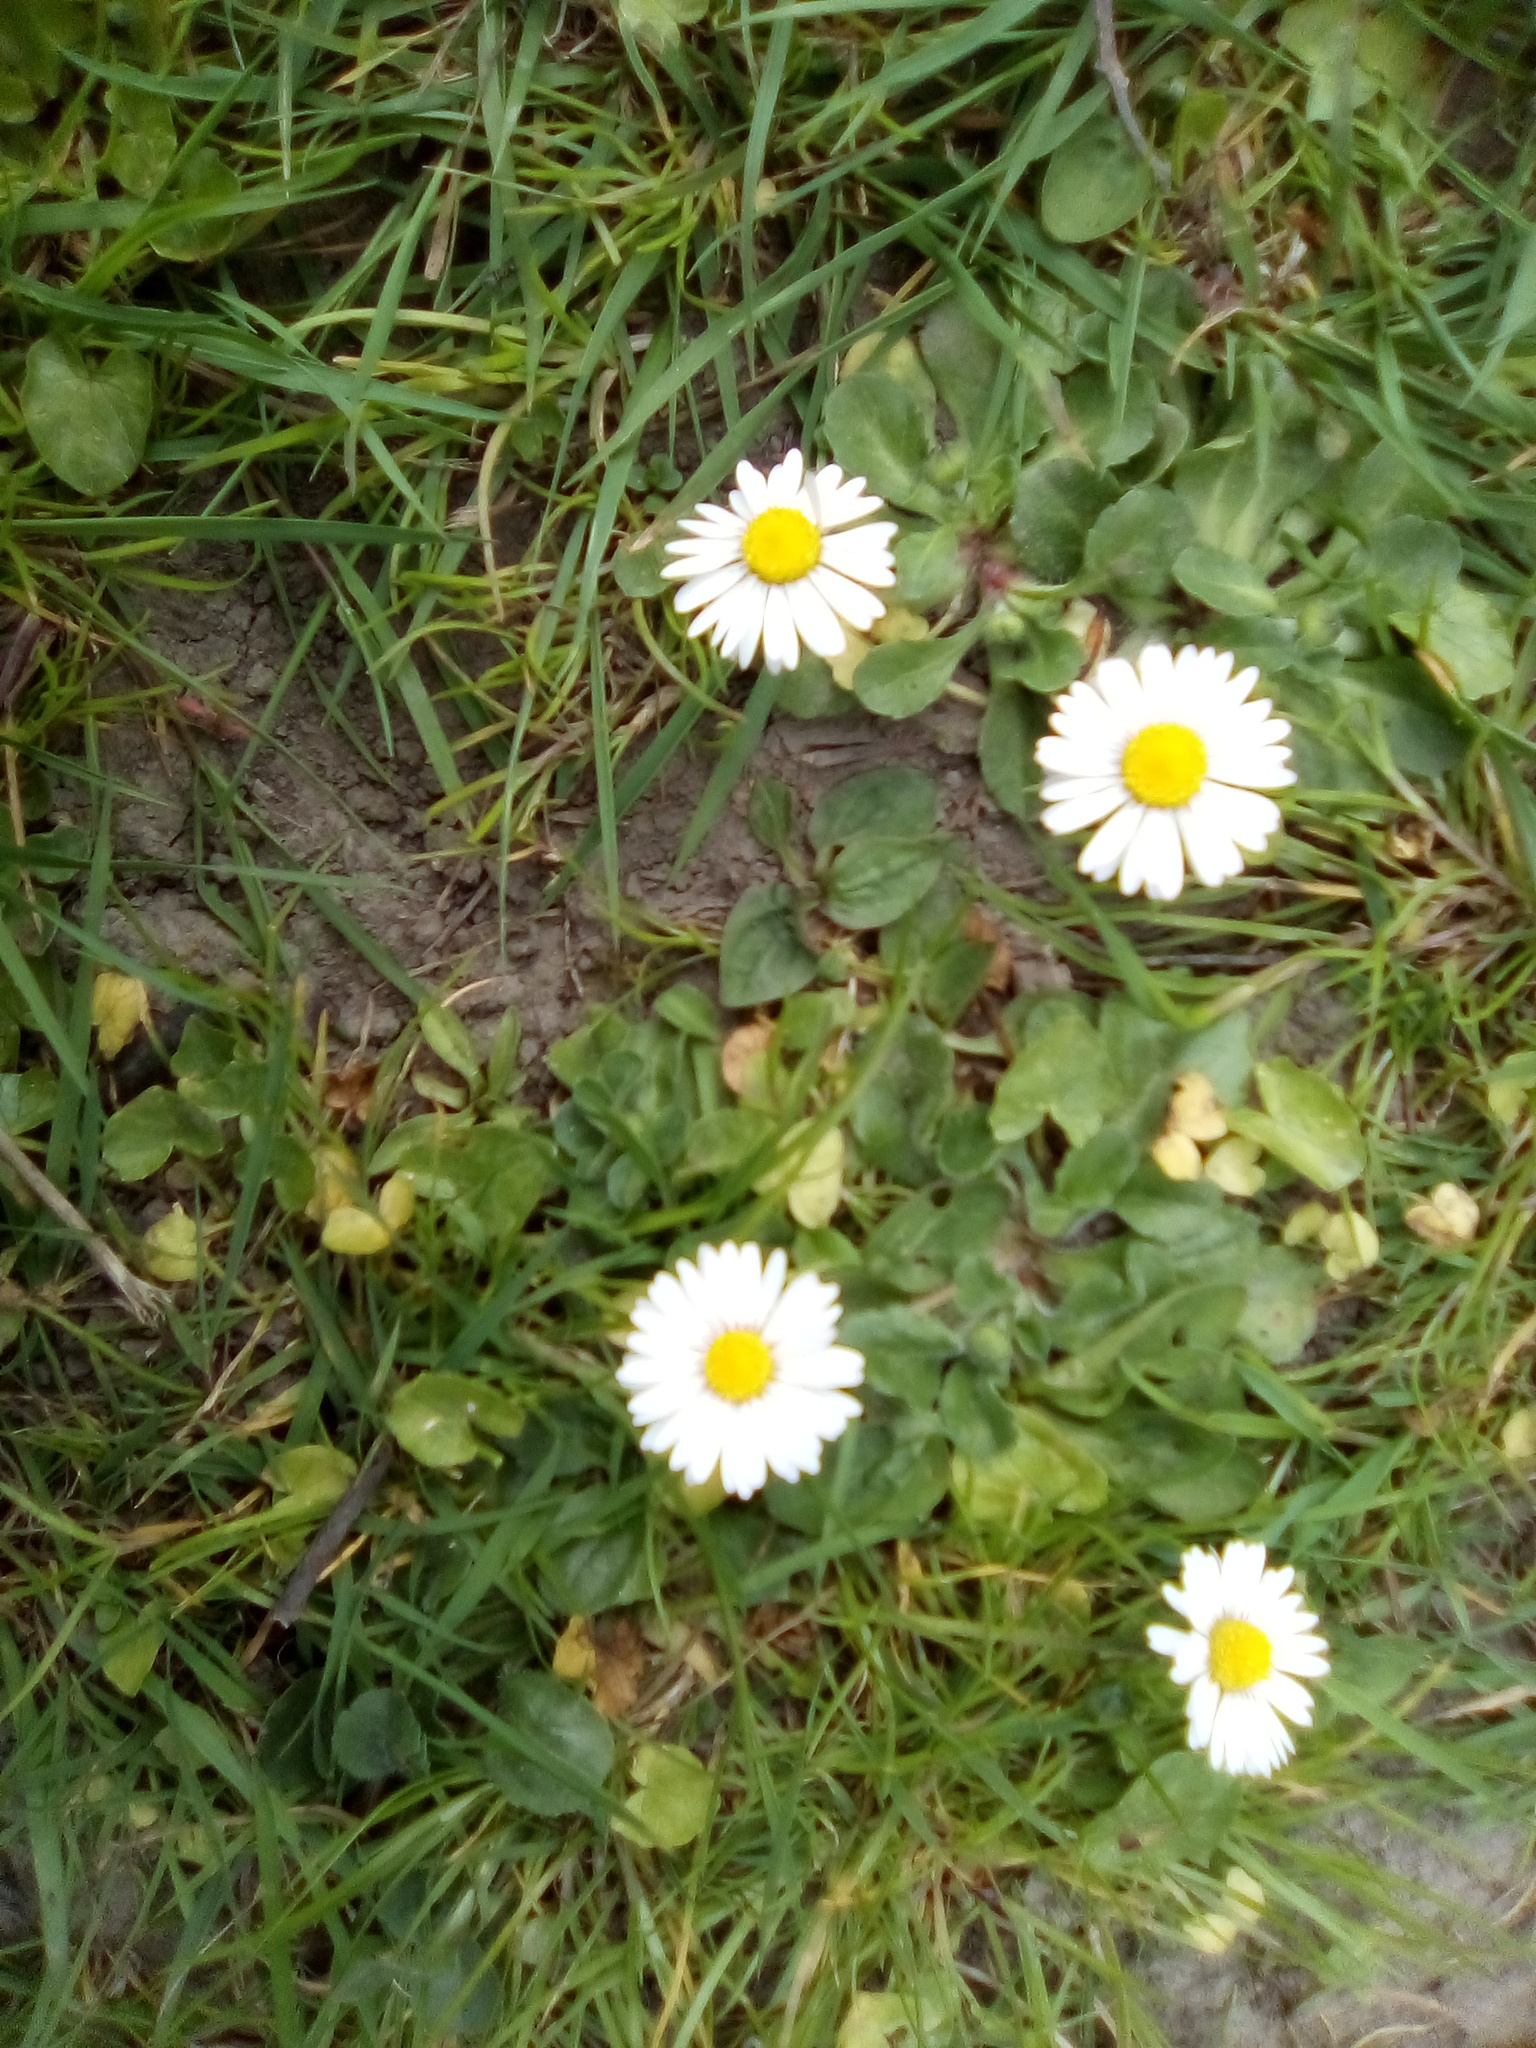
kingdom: Plantae
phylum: Tracheophyta
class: Magnoliopsida
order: Asterales
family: Asteraceae
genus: Bellis
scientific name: Bellis perennis
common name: Lawndaisy
